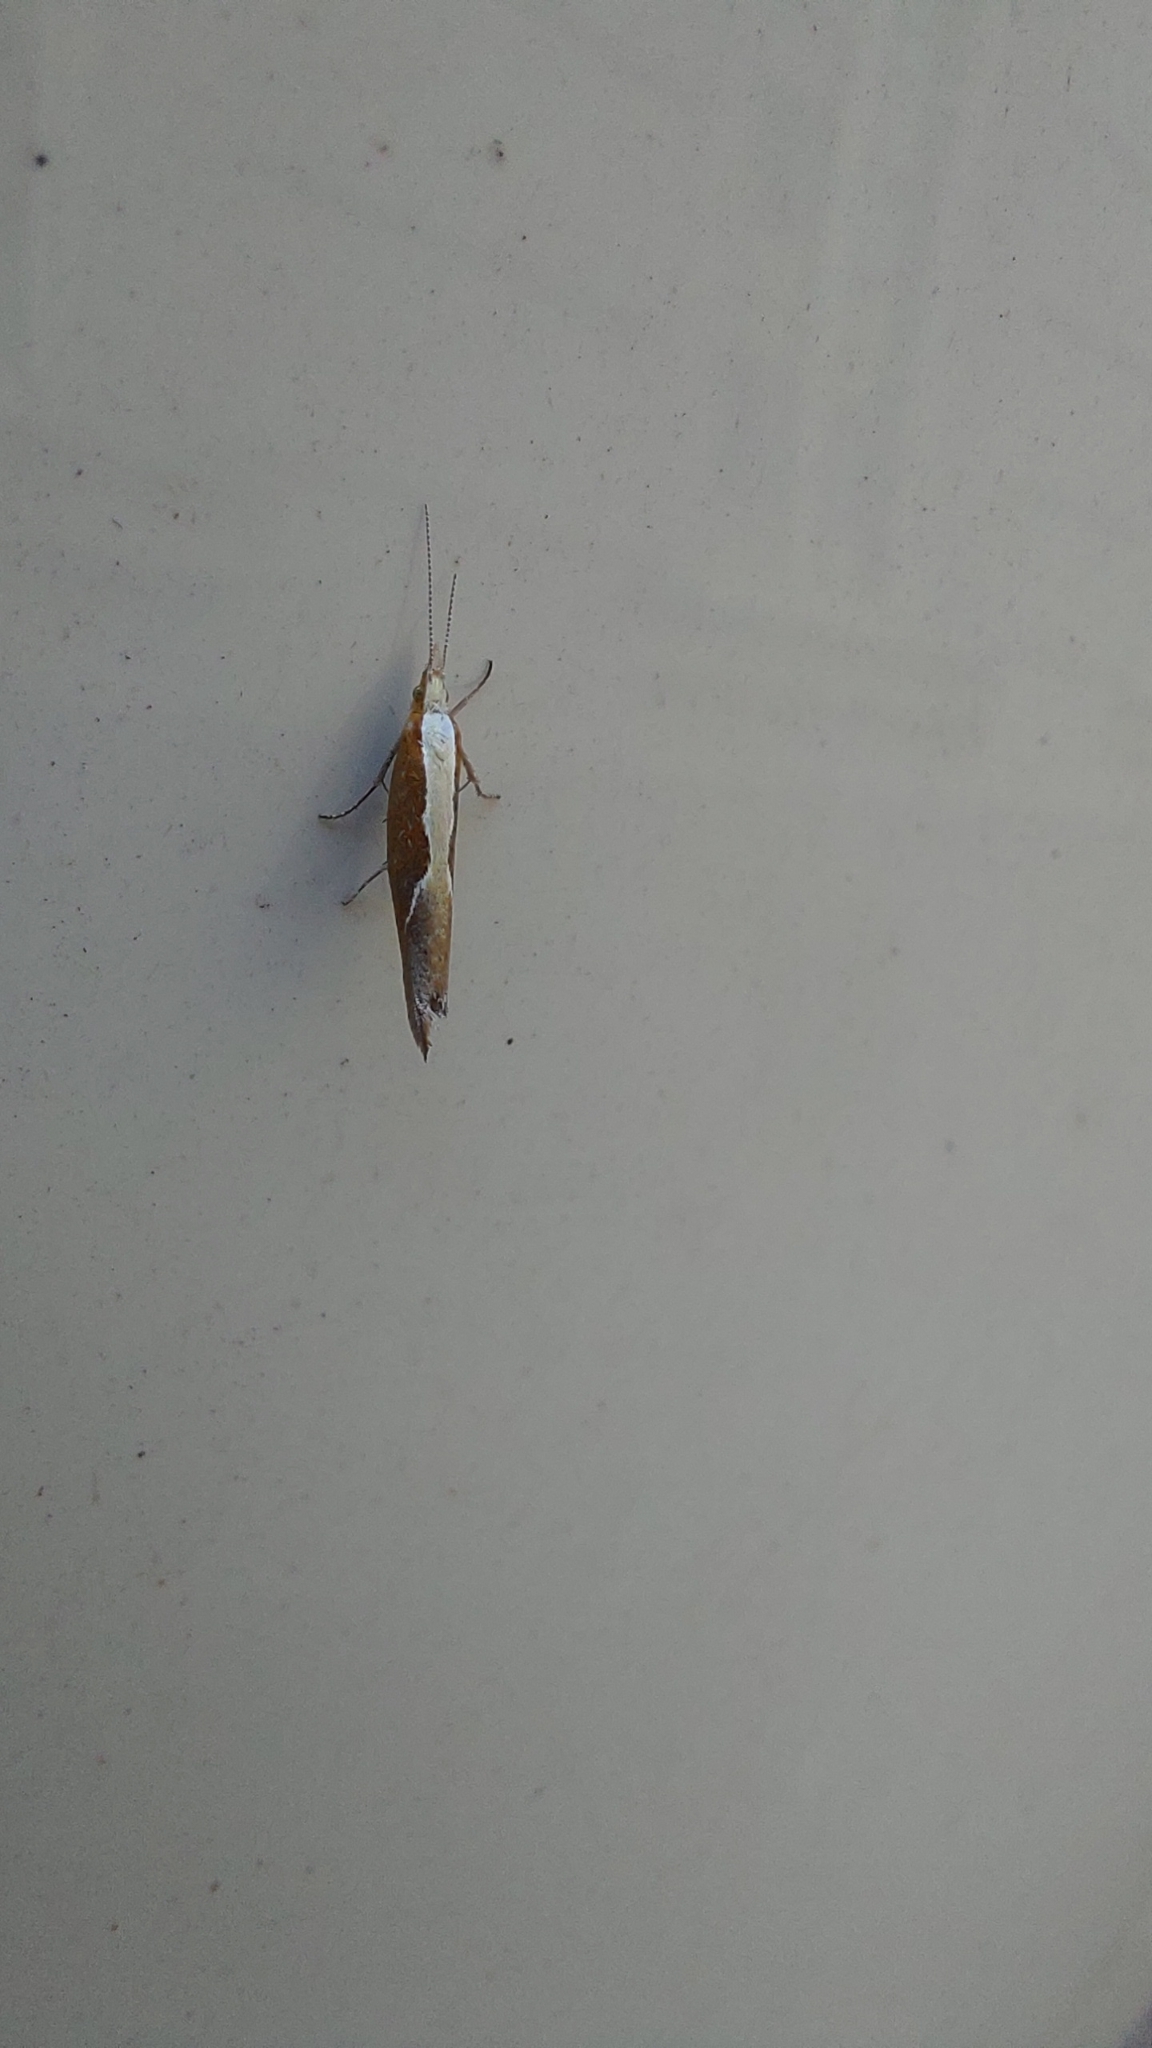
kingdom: Animalia
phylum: Arthropoda
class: Insecta
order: Lepidoptera
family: Ypsolophidae
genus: Ypsolopha
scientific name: Ypsolopha dentella
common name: Honeysuckle moth
